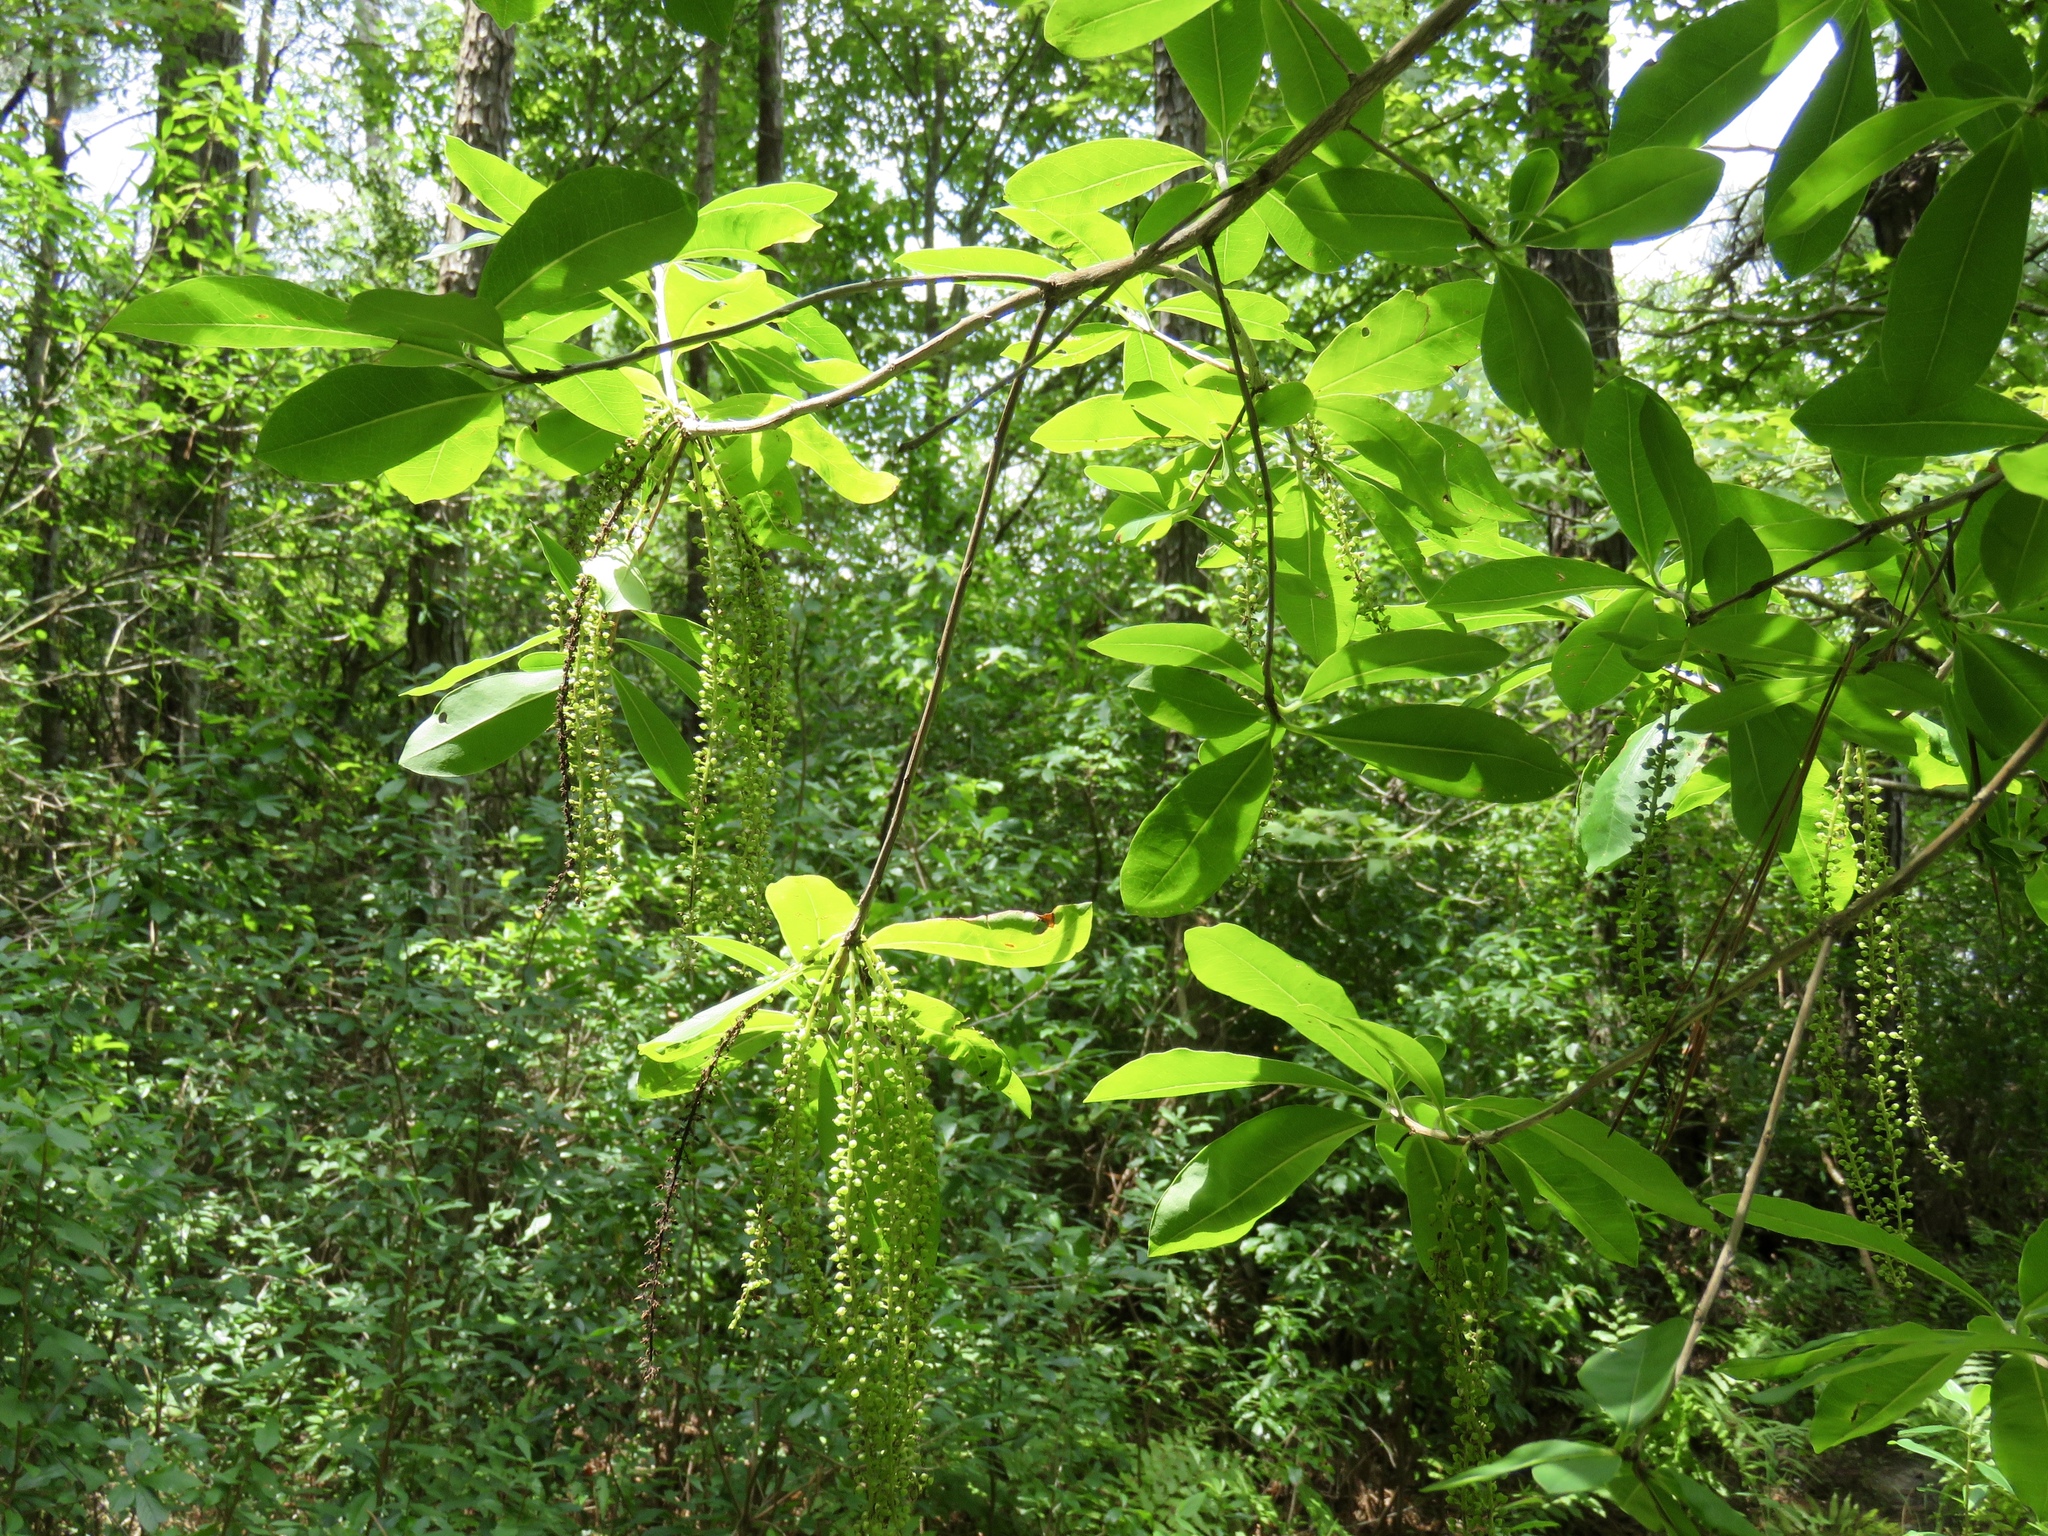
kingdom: Plantae
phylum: Tracheophyta
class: Magnoliopsida
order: Ericales
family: Cyrillaceae
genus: Cyrilla
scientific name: Cyrilla racemiflora
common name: Black titi
